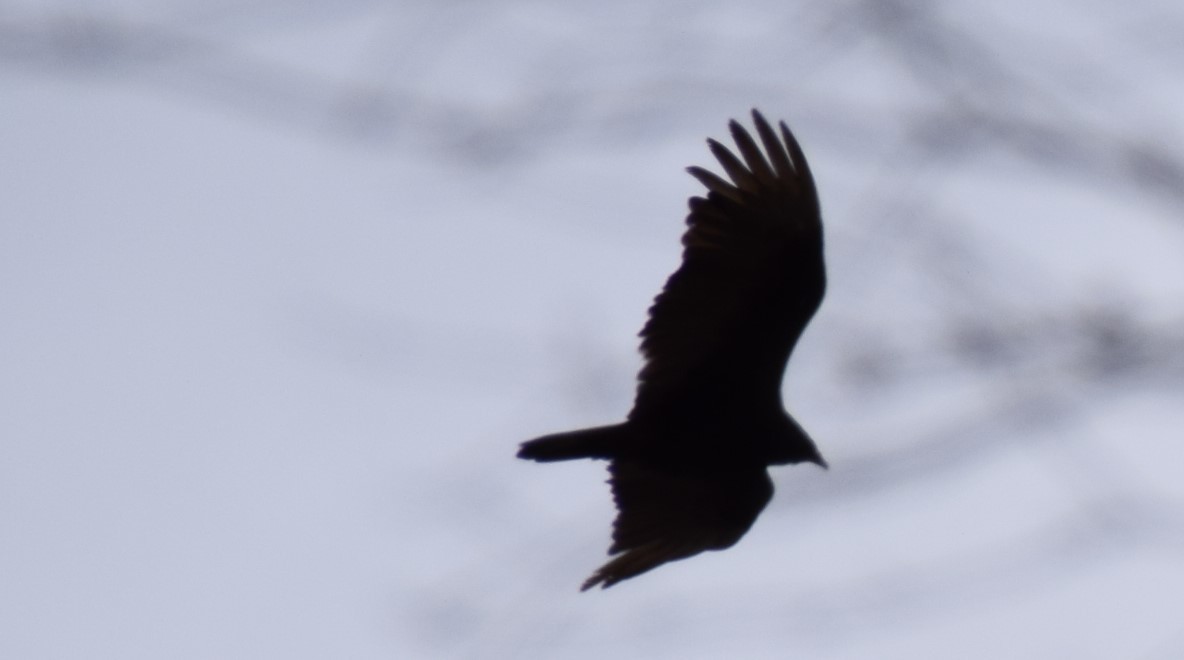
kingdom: Animalia
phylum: Chordata
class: Aves
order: Accipitriformes
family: Cathartidae
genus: Cathartes
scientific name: Cathartes aura
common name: Turkey vulture
